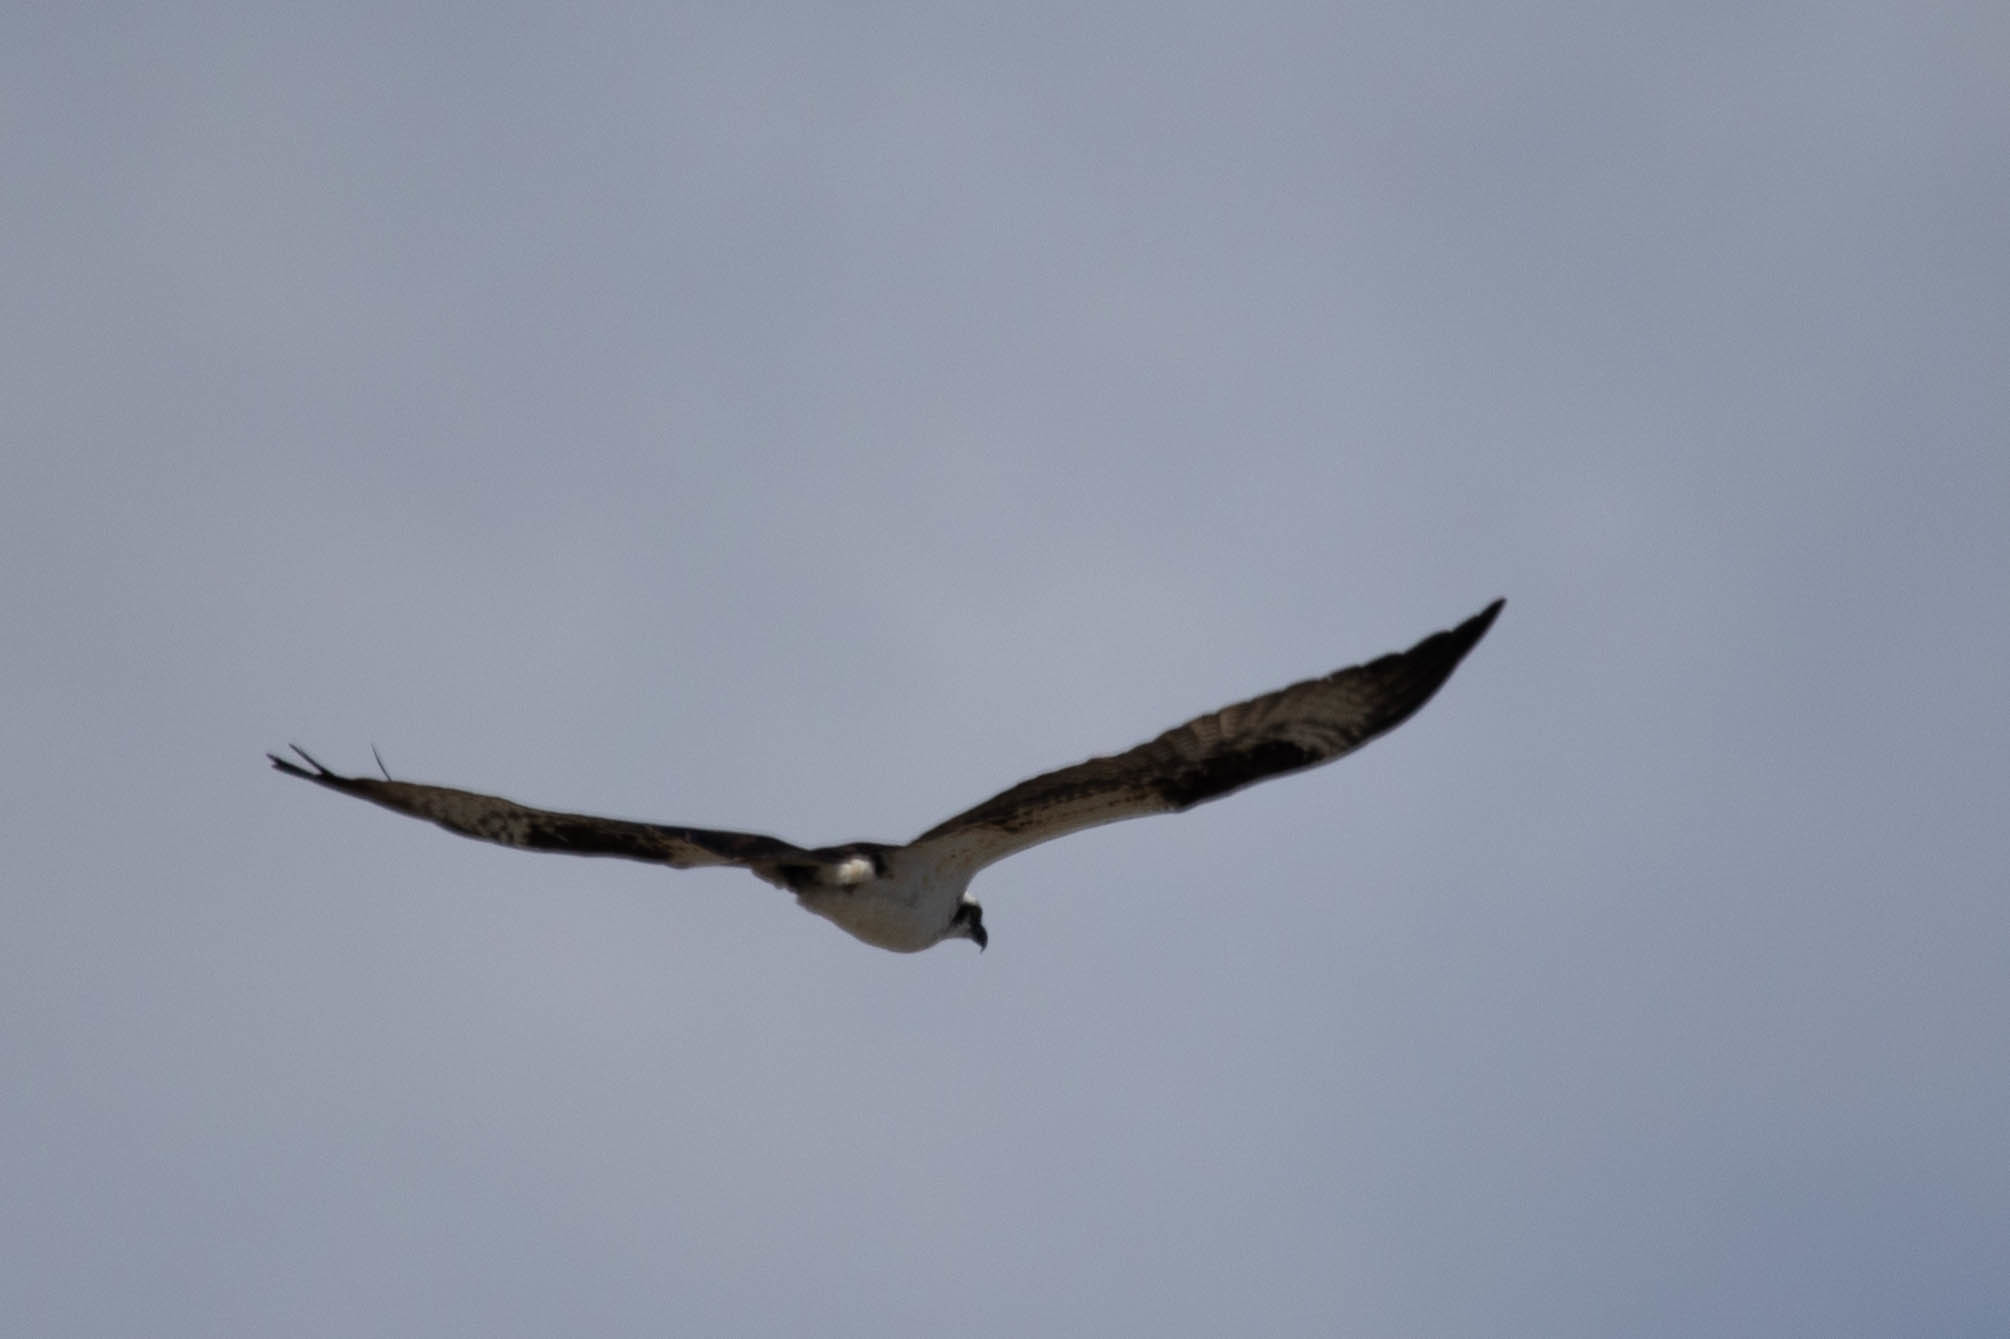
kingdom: Animalia
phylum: Chordata
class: Aves
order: Accipitriformes
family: Pandionidae
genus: Pandion
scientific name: Pandion haliaetus
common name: Osprey
